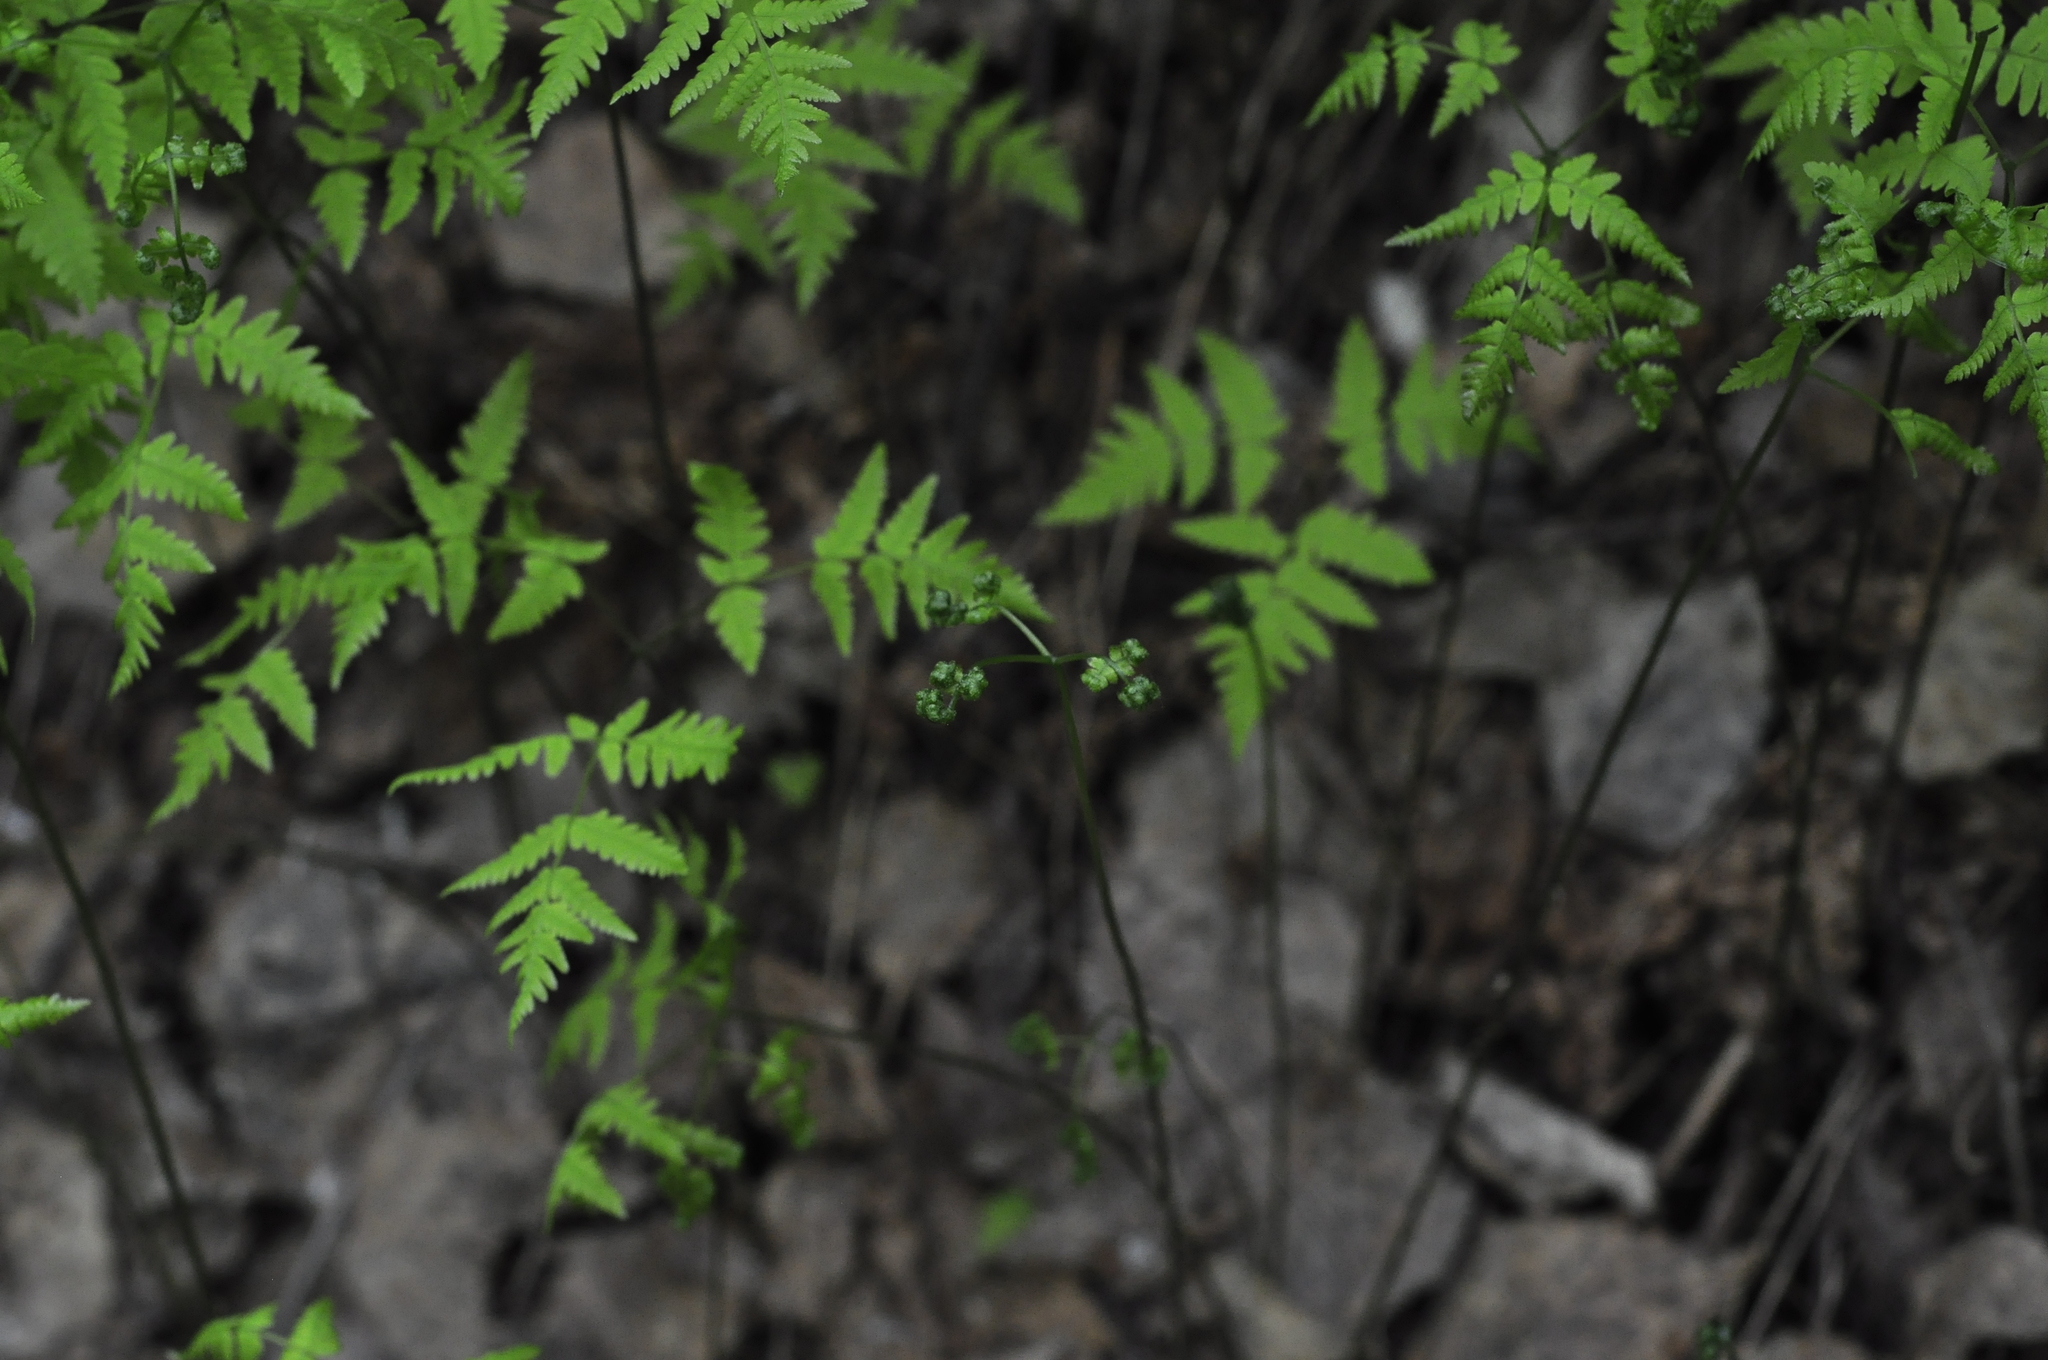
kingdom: Plantae
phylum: Tracheophyta
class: Polypodiopsida
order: Polypodiales
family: Cystopteridaceae
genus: Gymnocarpium
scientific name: Gymnocarpium dryopteris
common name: Oak fern
